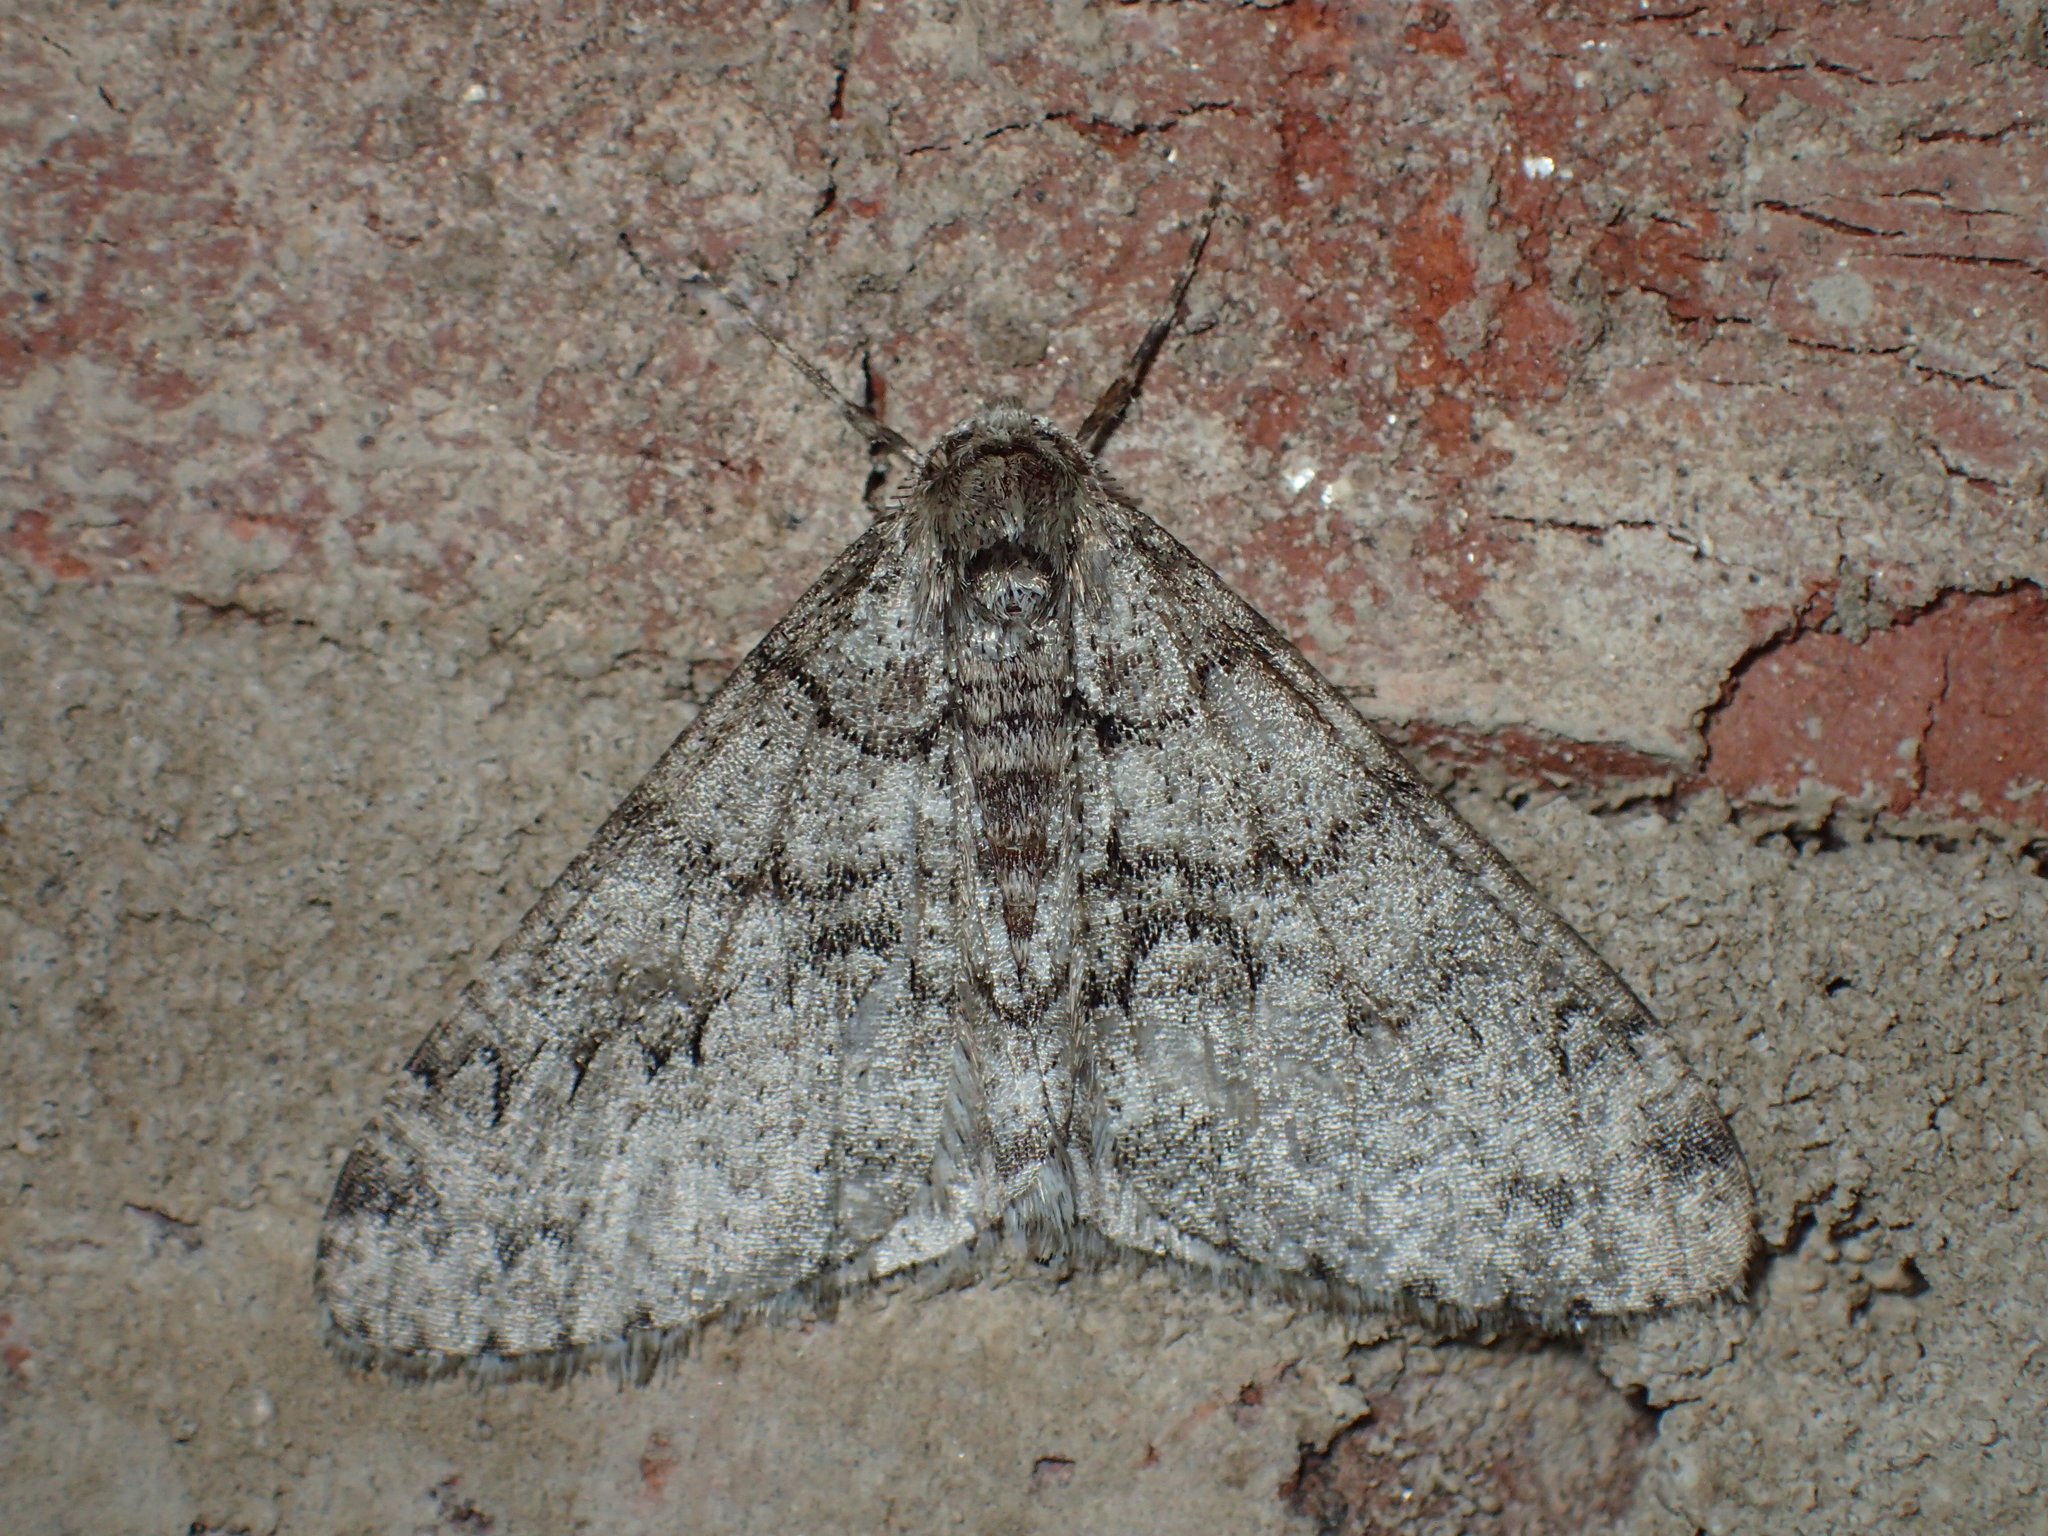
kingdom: Animalia
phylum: Arthropoda
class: Insecta
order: Lepidoptera
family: Geometridae
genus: Phigalia
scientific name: Phigalia denticulata
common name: Toothed phigalia
